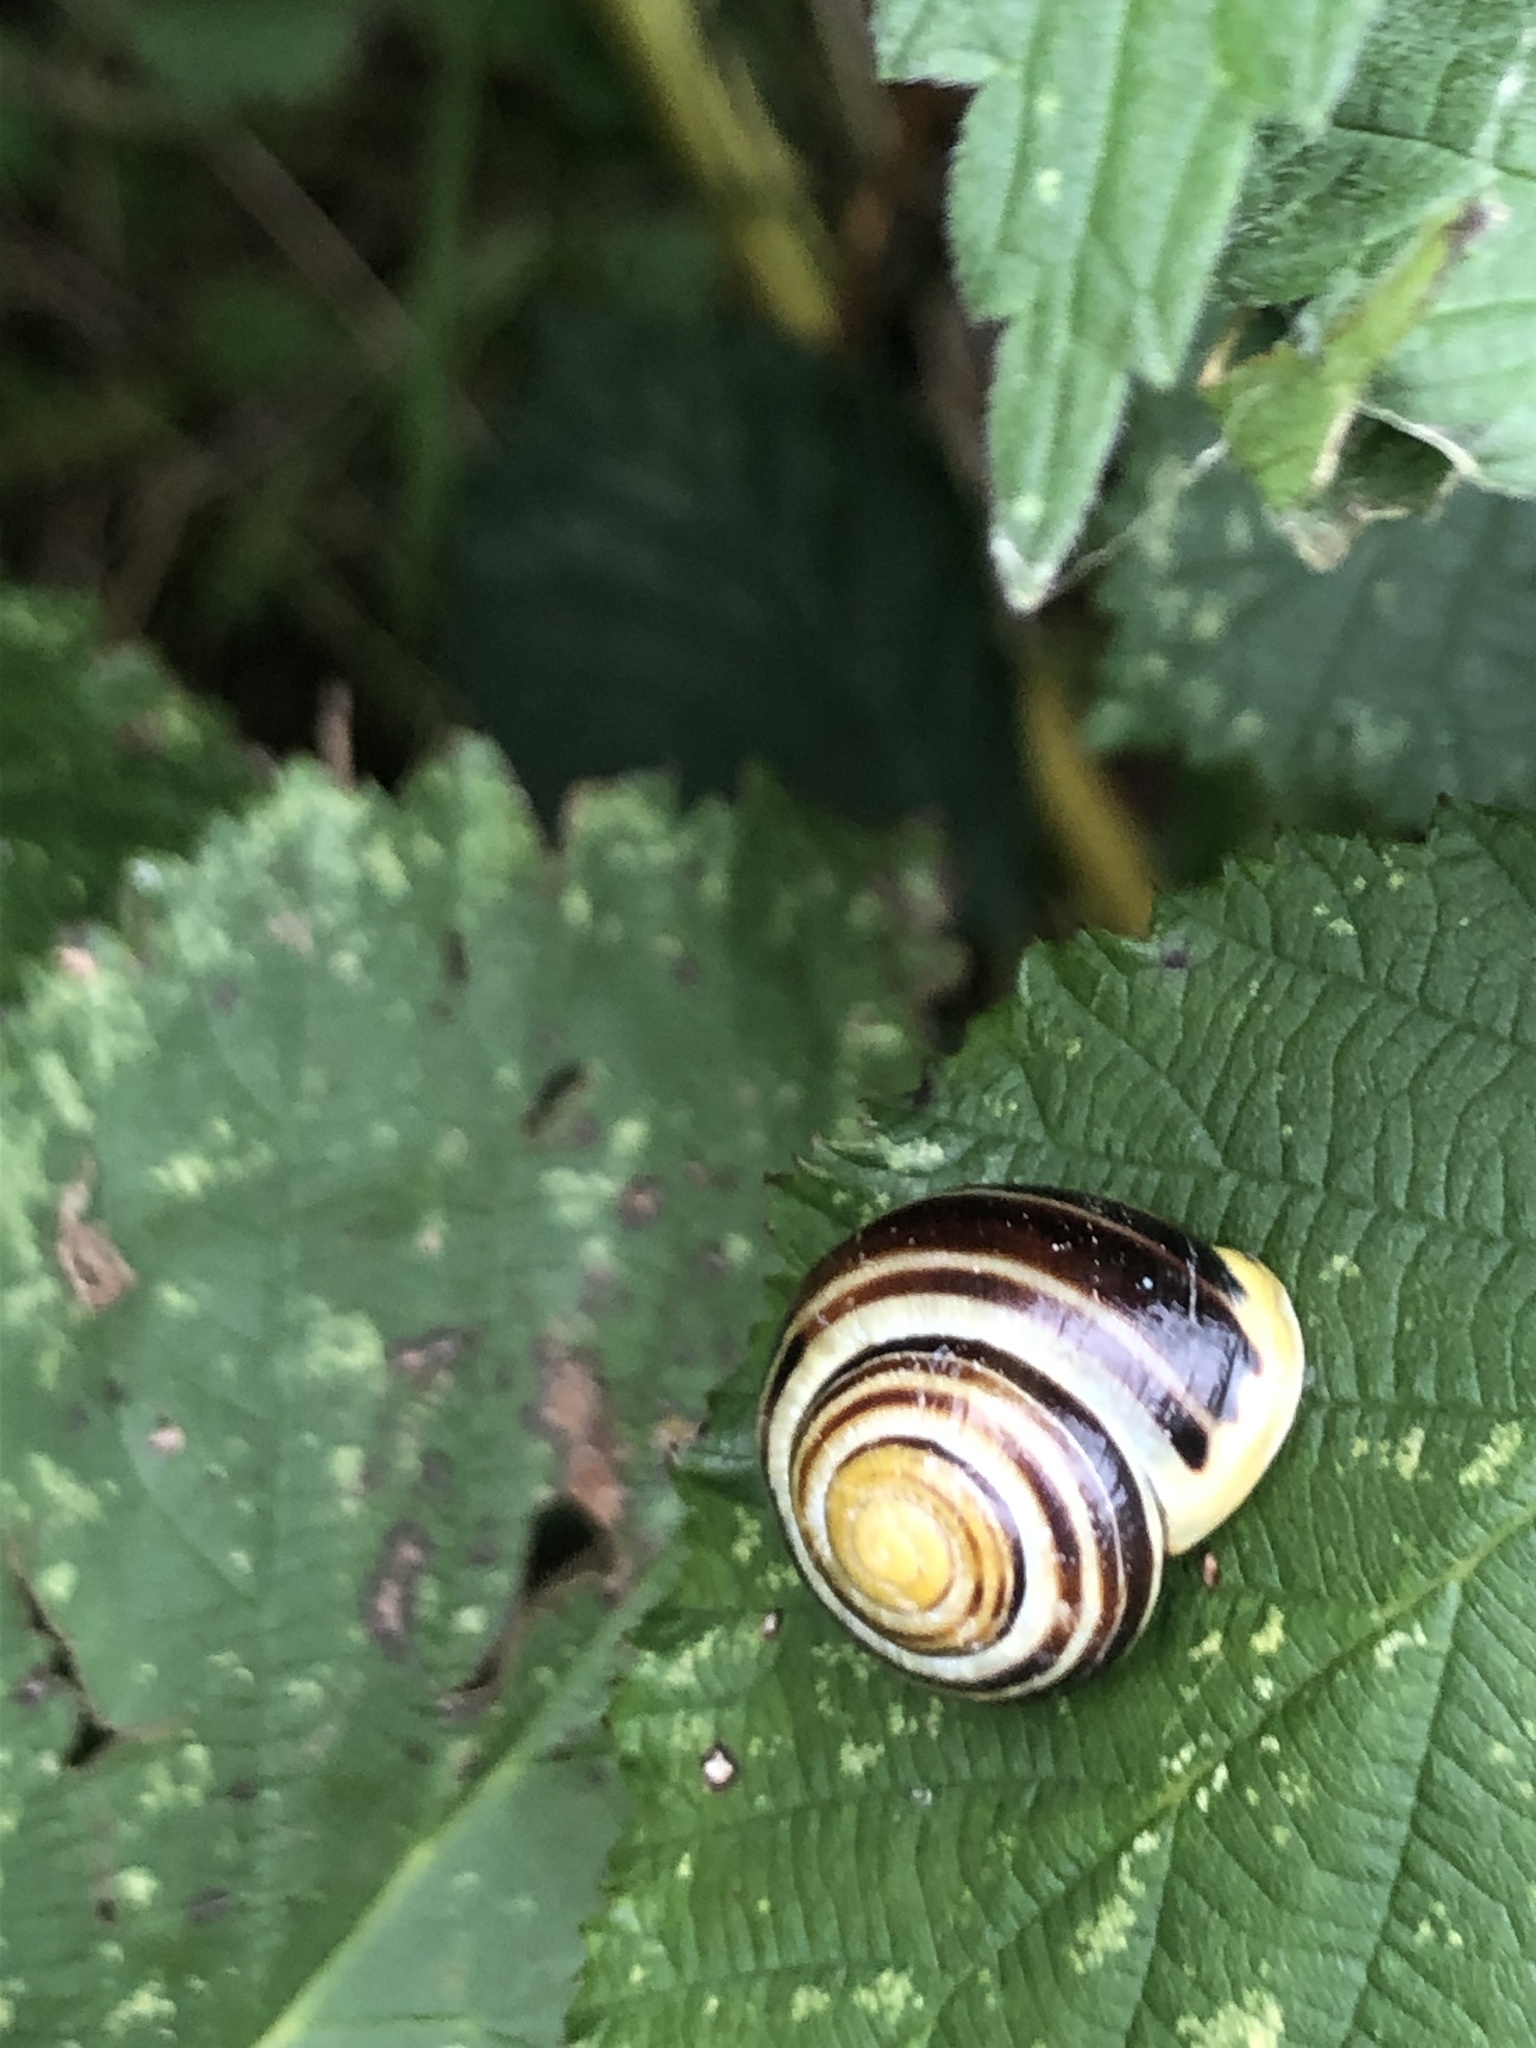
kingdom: Animalia
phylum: Mollusca
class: Gastropoda
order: Stylommatophora
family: Helicidae
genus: Cepaea
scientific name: Cepaea hortensis
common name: White-lip gardensnail
